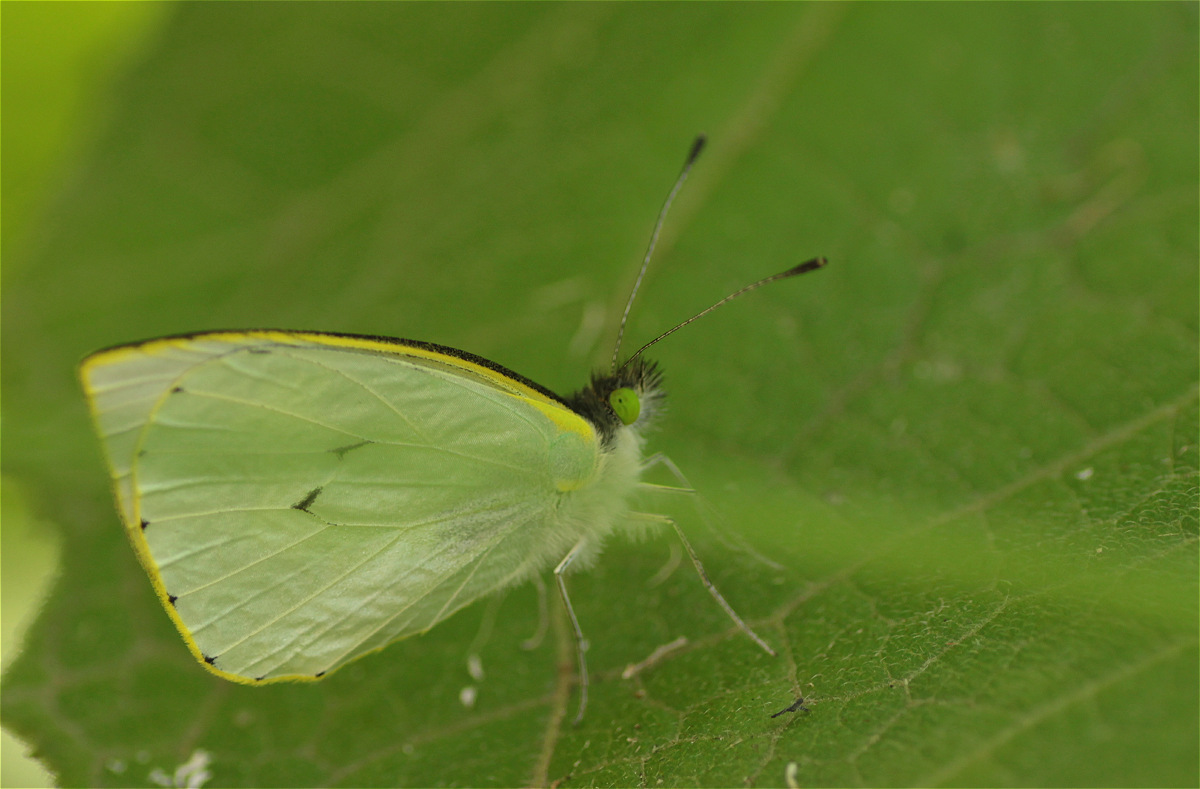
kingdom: Animalia
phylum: Arthropoda
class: Insecta
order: Lepidoptera
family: Pieridae
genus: Leptophobia
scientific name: Leptophobia eleone
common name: Silky wanderer
